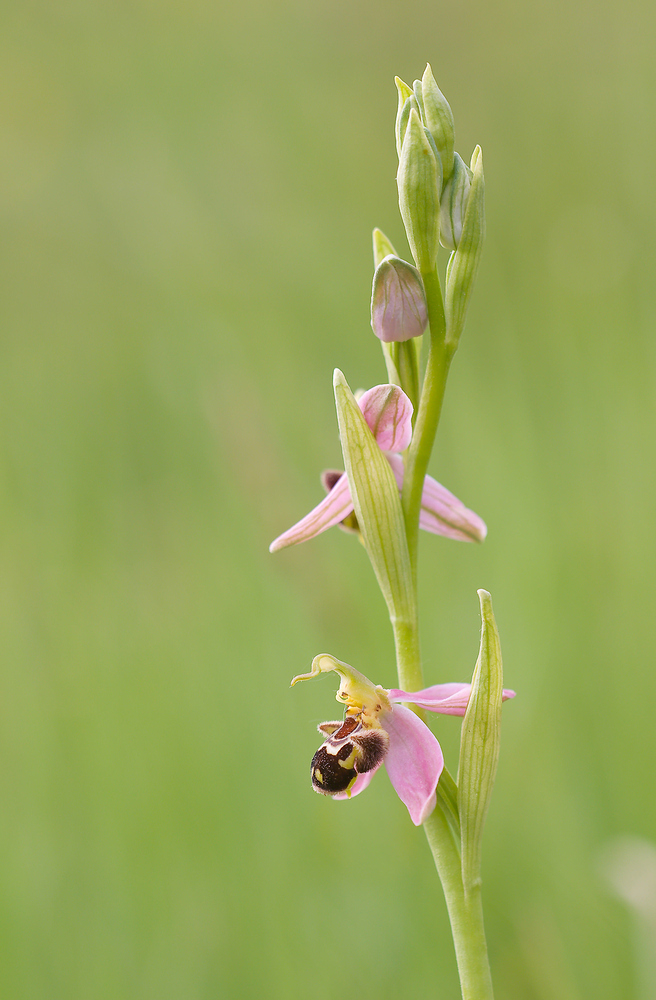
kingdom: Plantae
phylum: Tracheophyta
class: Liliopsida
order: Asparagales
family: Orchidaceae
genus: Ophrys
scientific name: Ophrys apifera
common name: Bee orchid
